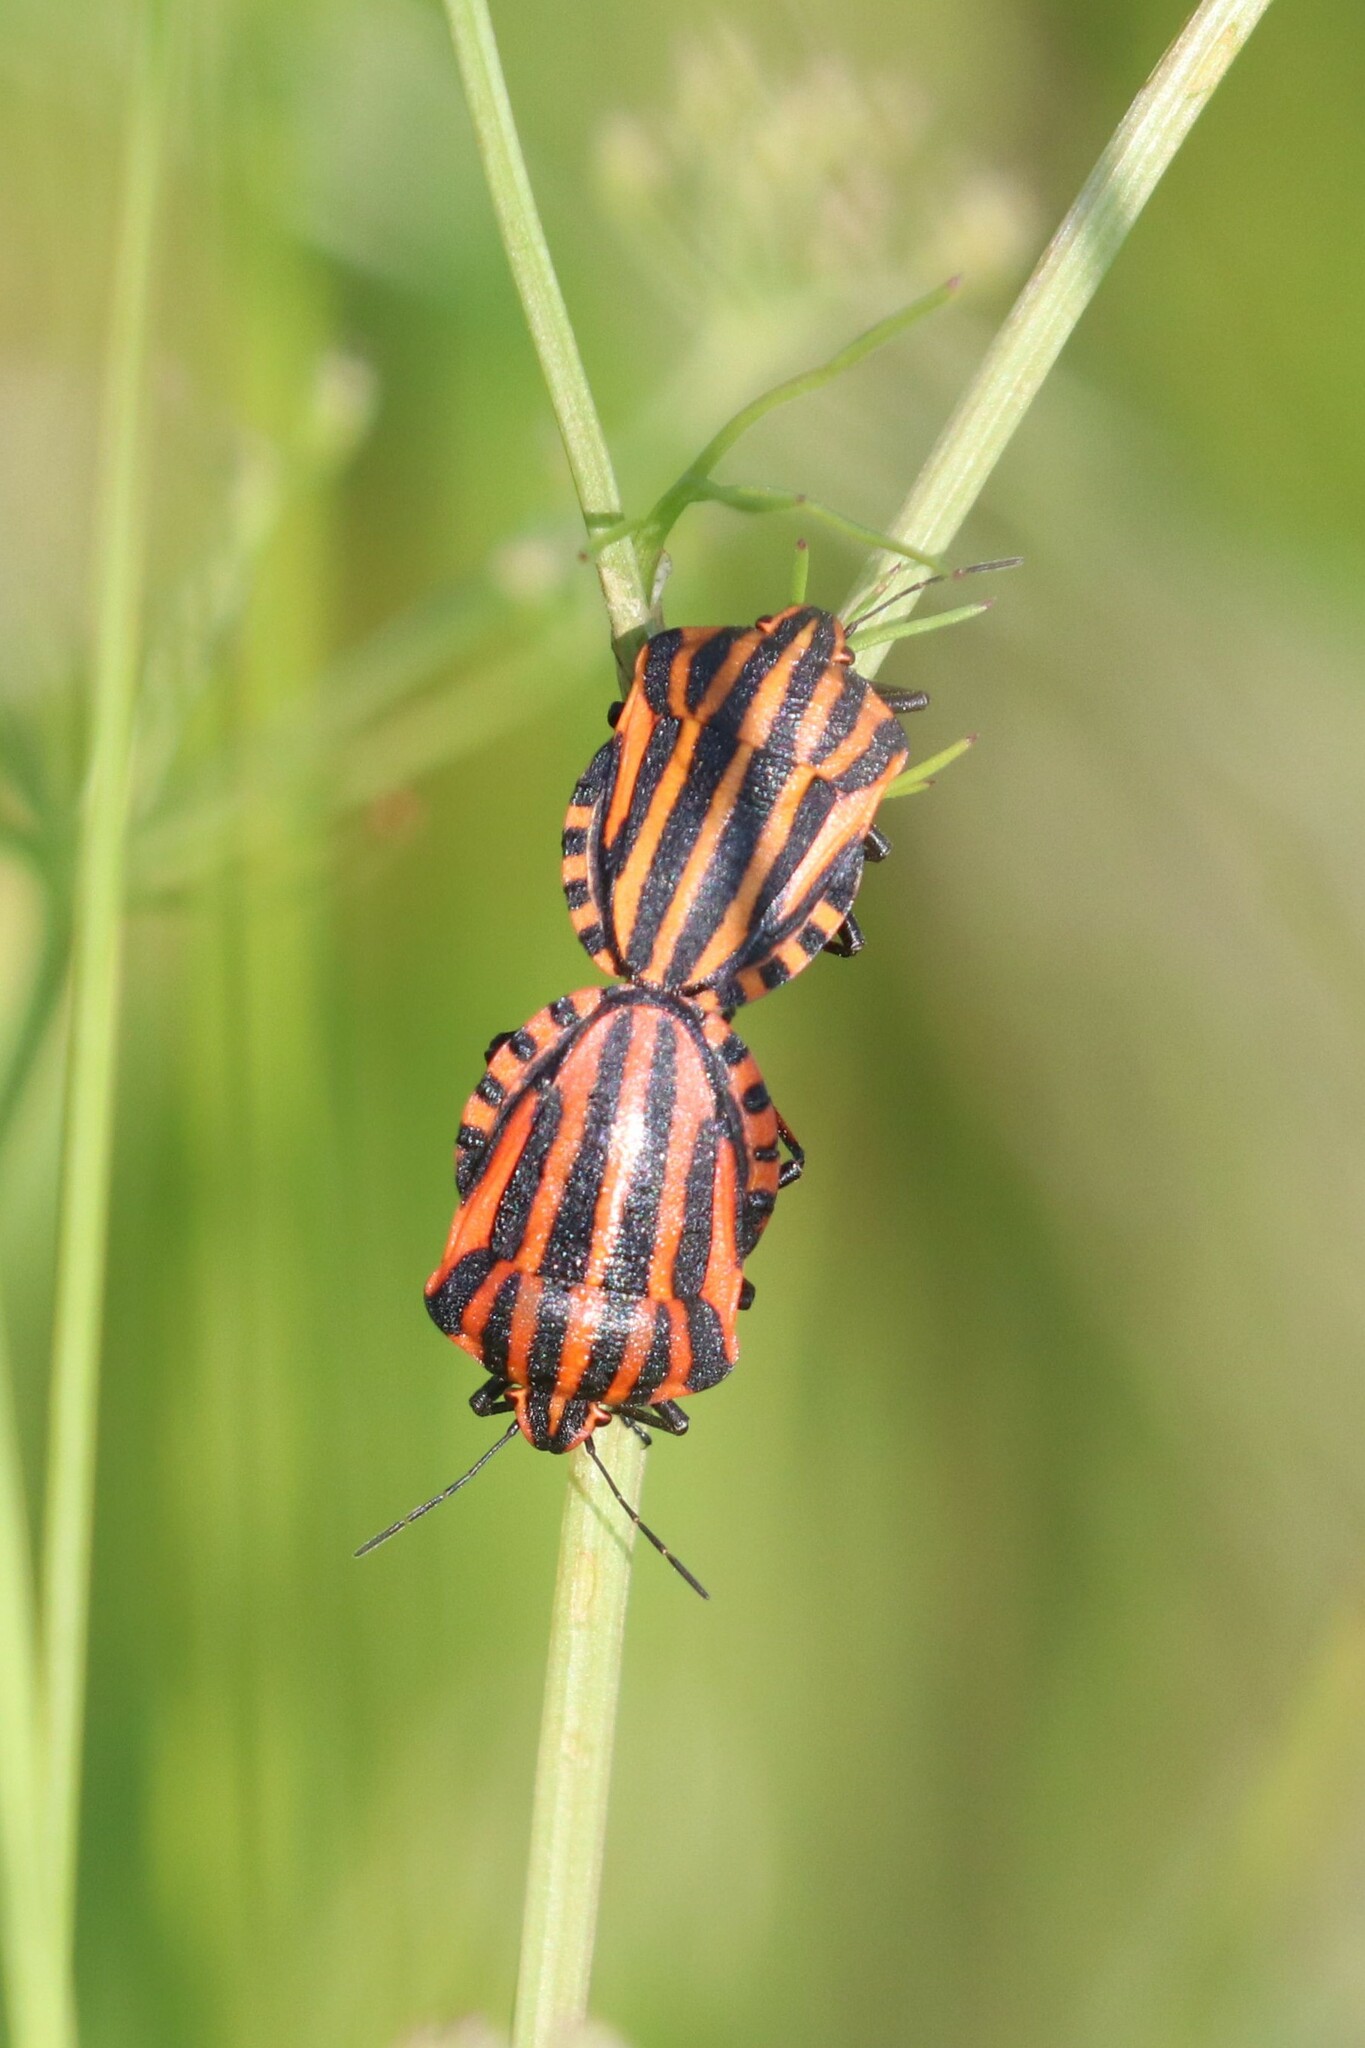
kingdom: Animalia
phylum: Arthropoda
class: Insecta
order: Hemiptera
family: Pentatomidae
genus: Graphosoma
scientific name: Graphosoma italicum
